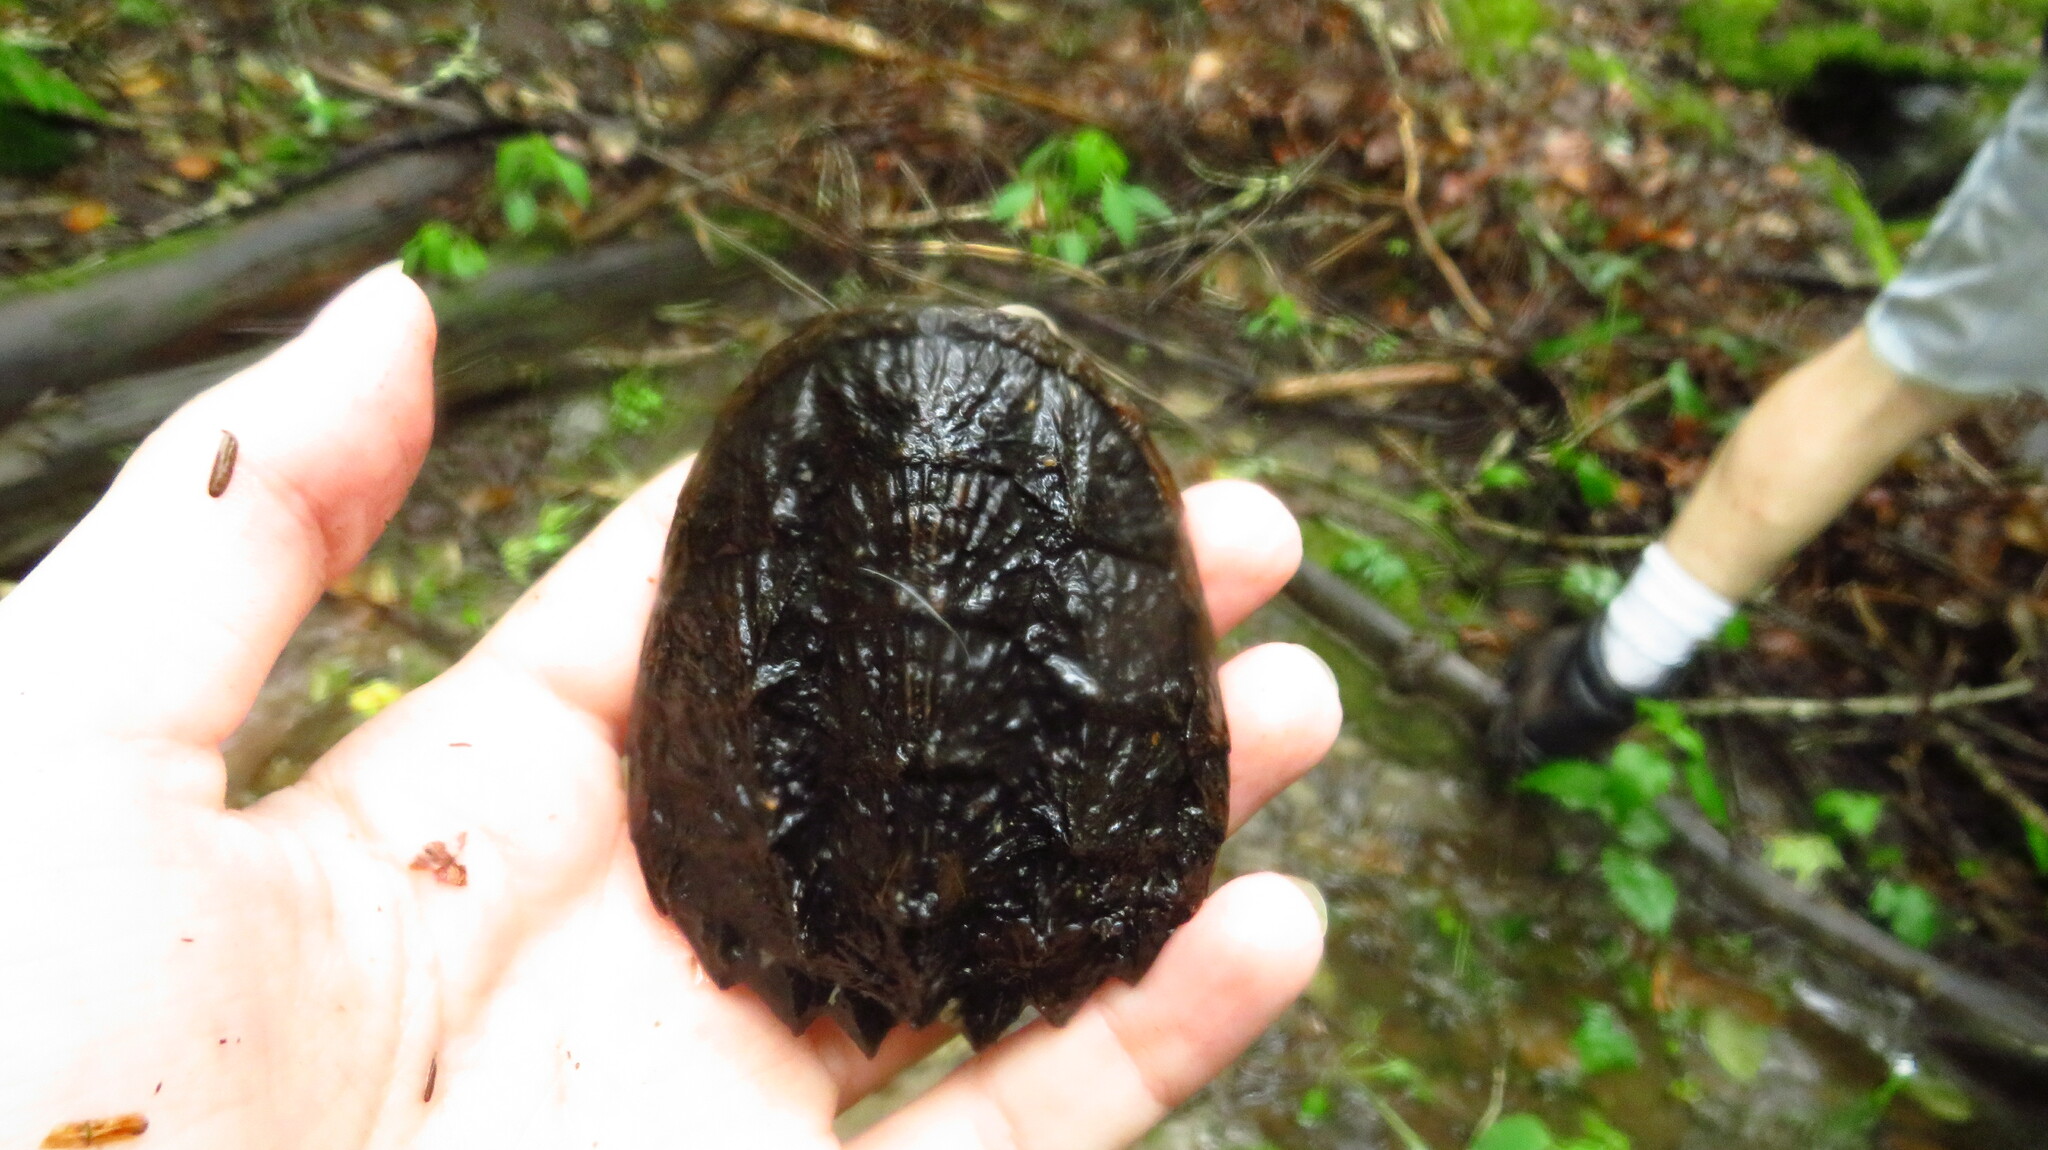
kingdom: Animalia
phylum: Chordata
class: Testudines
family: Chelydridae
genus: Chelydra
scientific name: Chelydra serpentina
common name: Common snapping turtle
